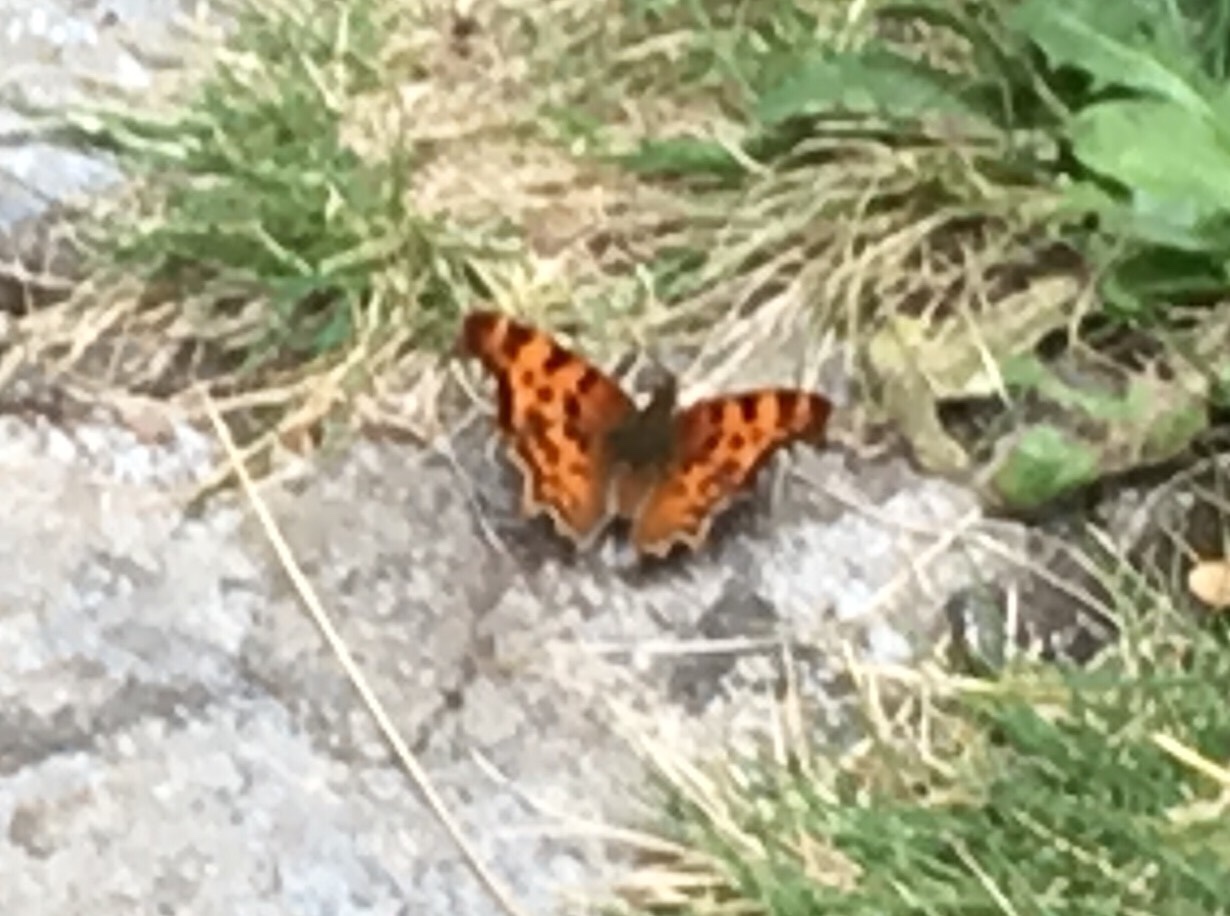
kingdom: Animalia
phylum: Arthropoda
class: Insecta
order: Lepidoptera
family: Nymphalidae
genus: Polygonia
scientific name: Polygonia satyrus
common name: Satyr angle wing
